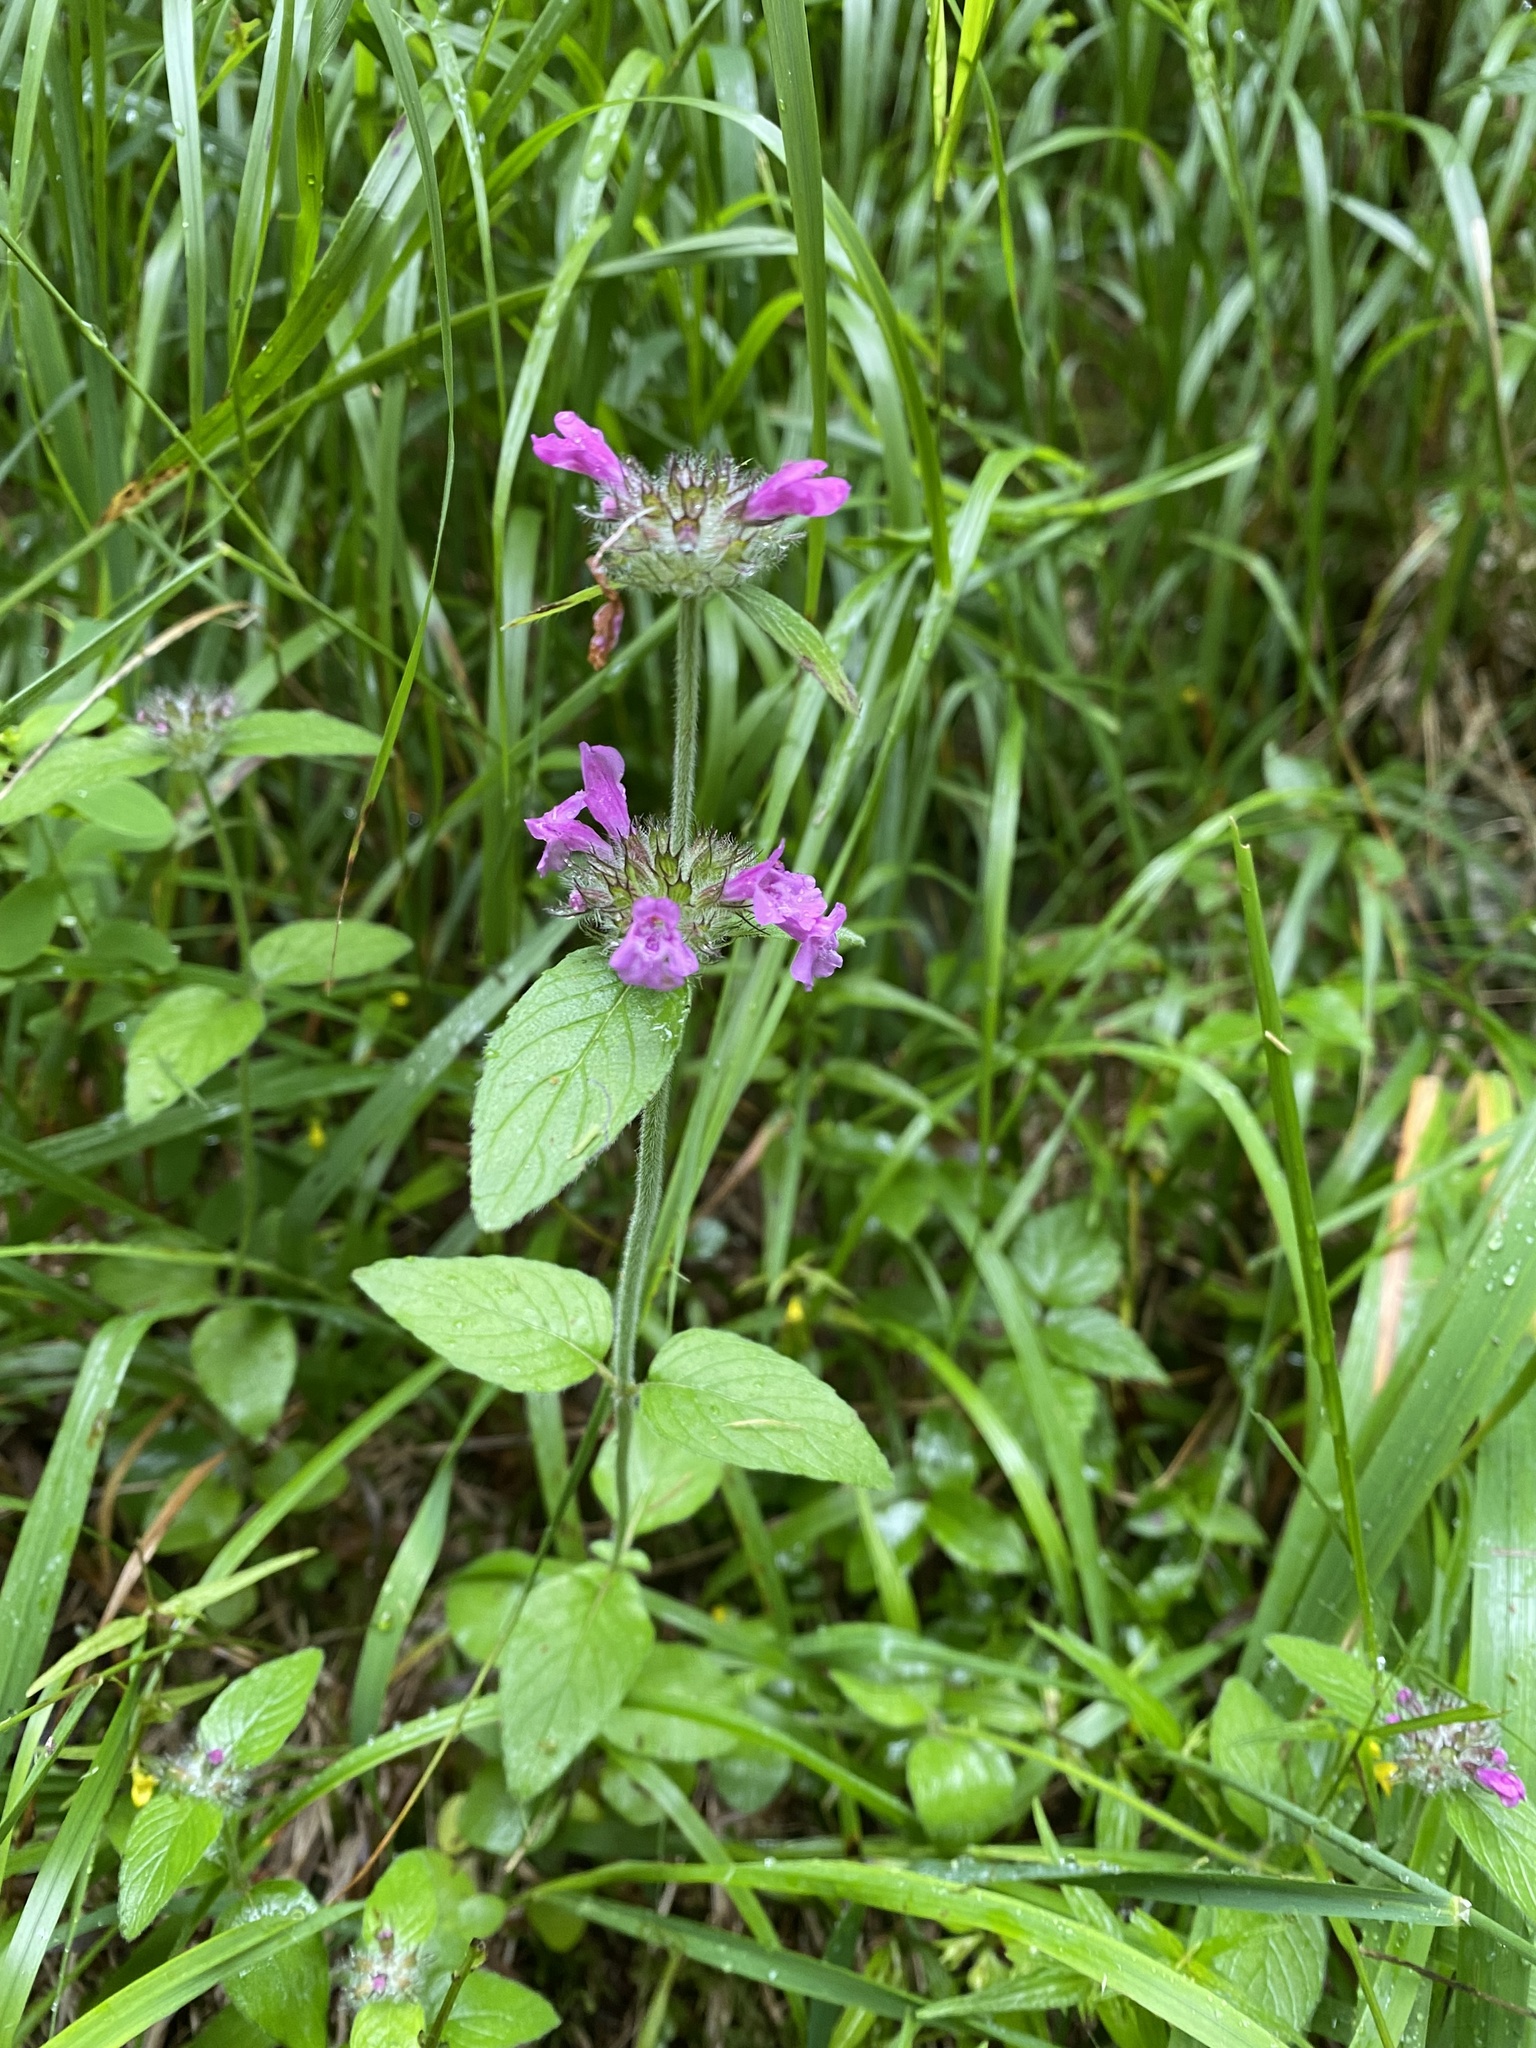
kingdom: Plantae
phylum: Tracheophyta
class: Magnoliopsida
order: Lamiales
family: Lamiaceae
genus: Clinopodium
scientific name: Clinopodium vulgare
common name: Wild basil
